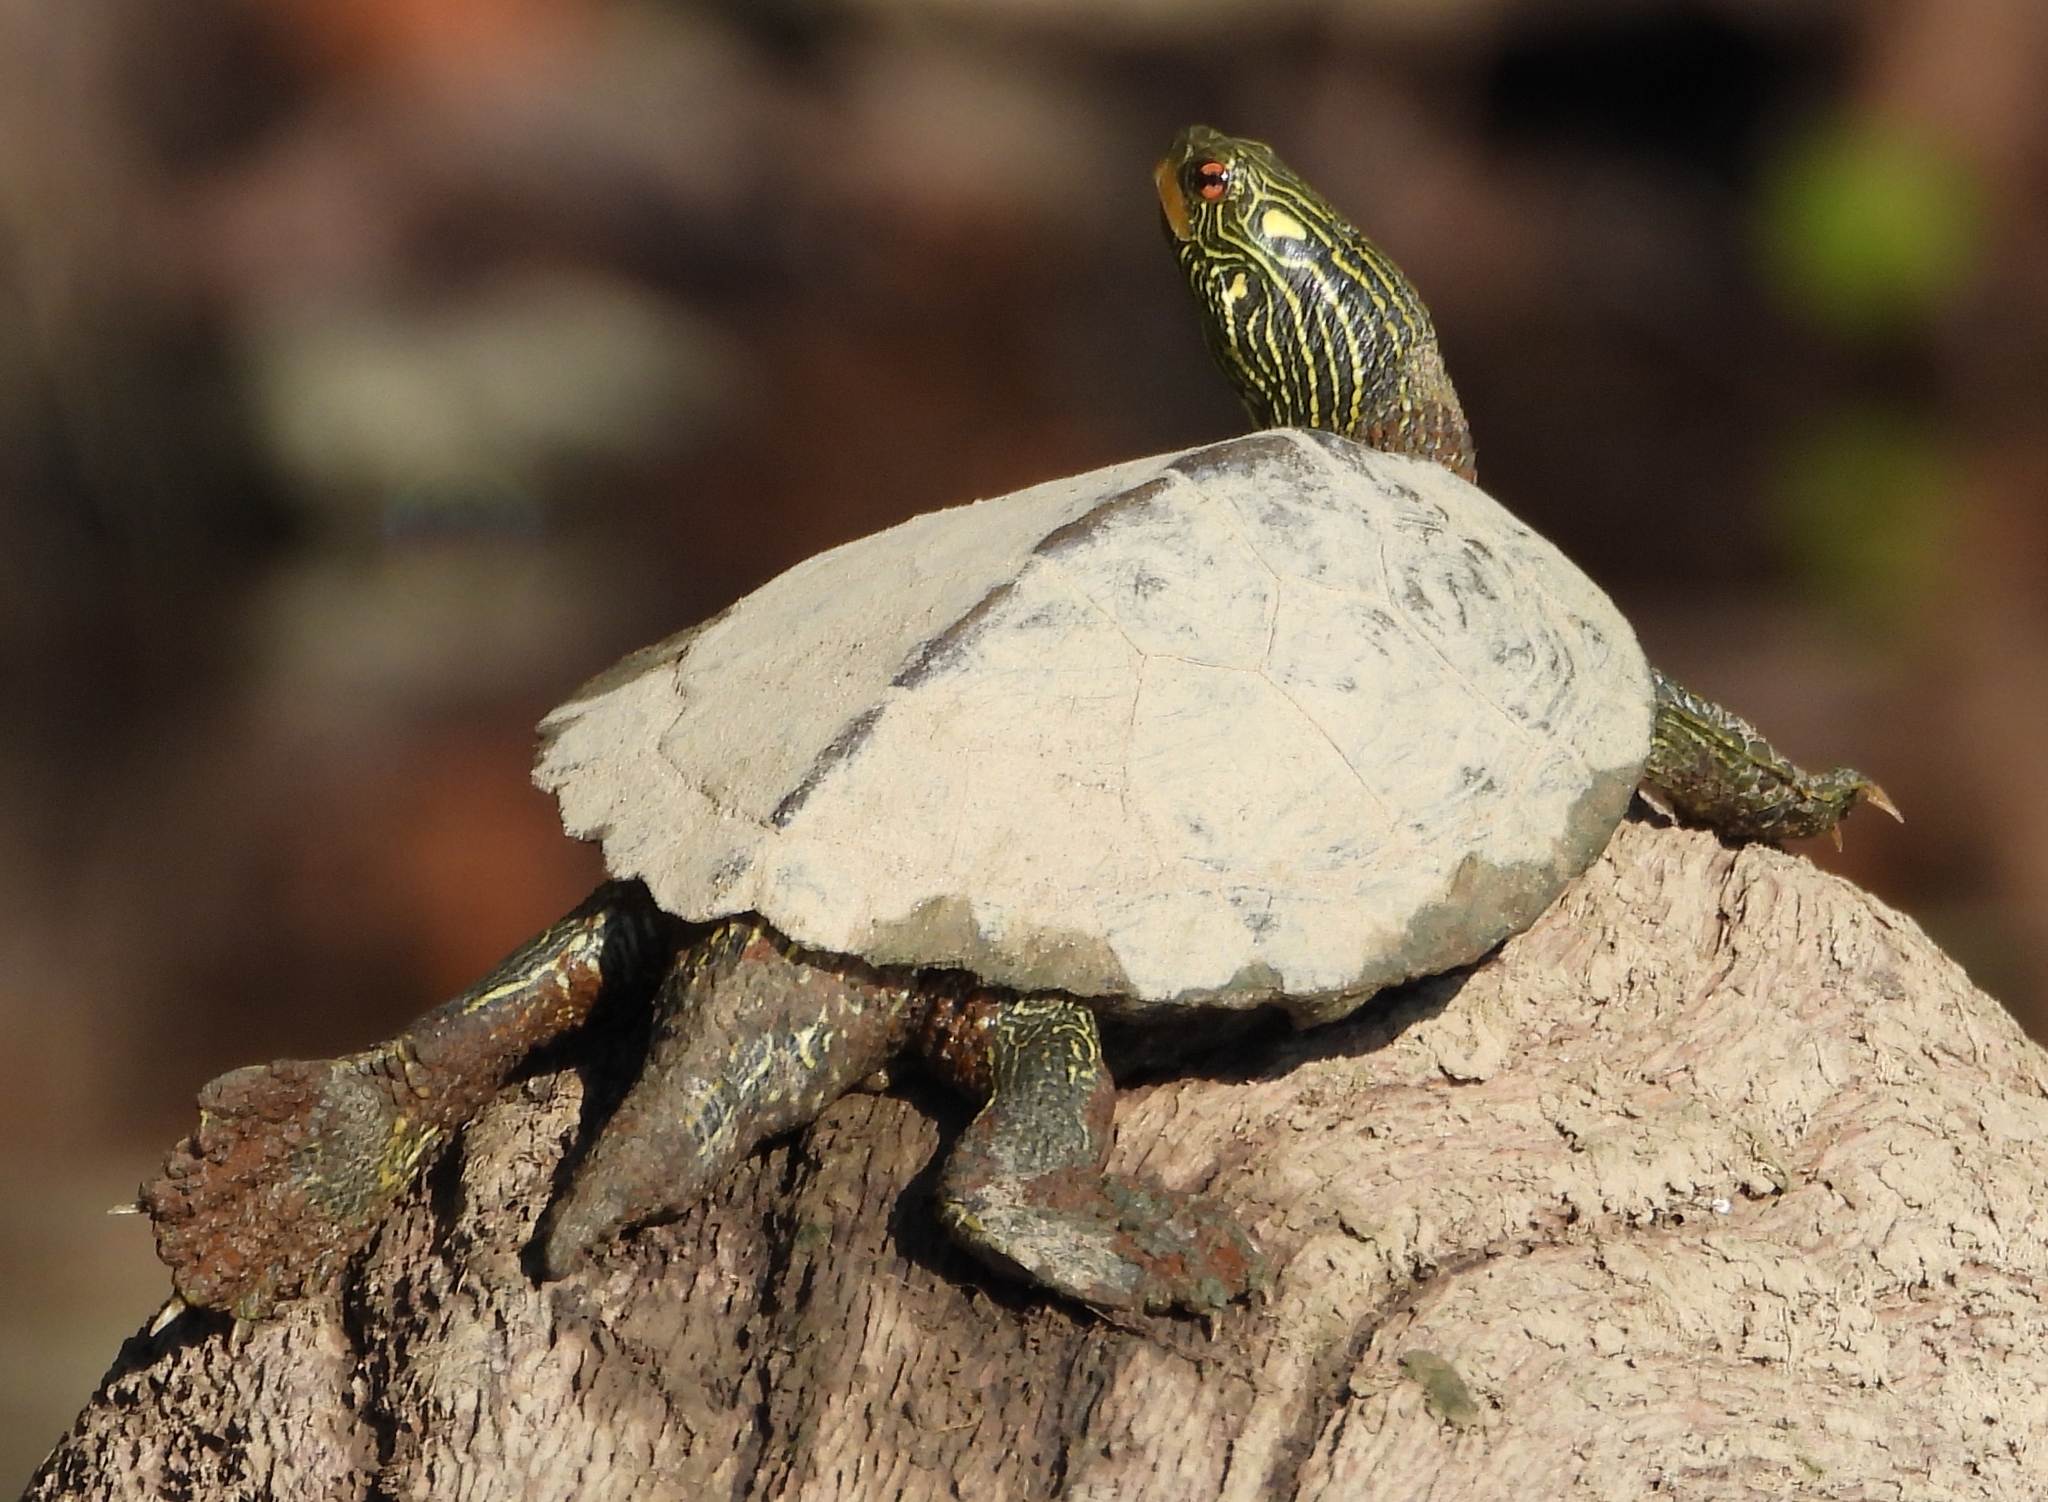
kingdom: Animalia
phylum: Chordata
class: Testudines
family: Emydidae
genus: Graptemys
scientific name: Graptemys geographica
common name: Common map turtle
